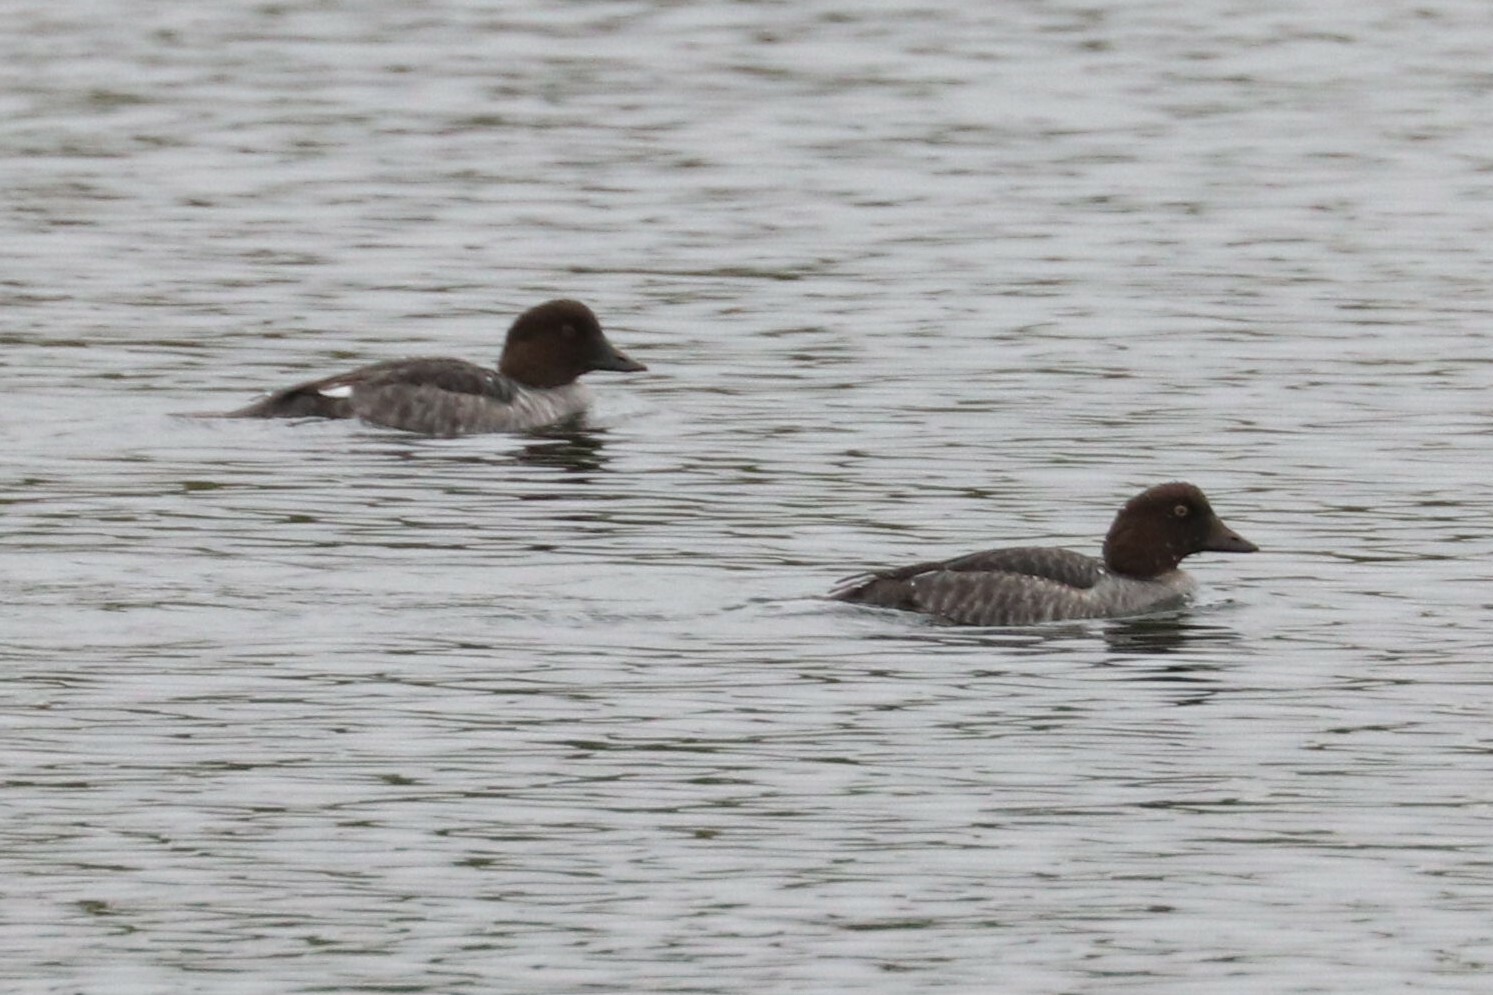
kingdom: Animalia
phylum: Chordata
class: Aves
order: Anseriformes
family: Anatidae
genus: Bucephala
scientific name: Bucephala clangula
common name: Common goldeneye
